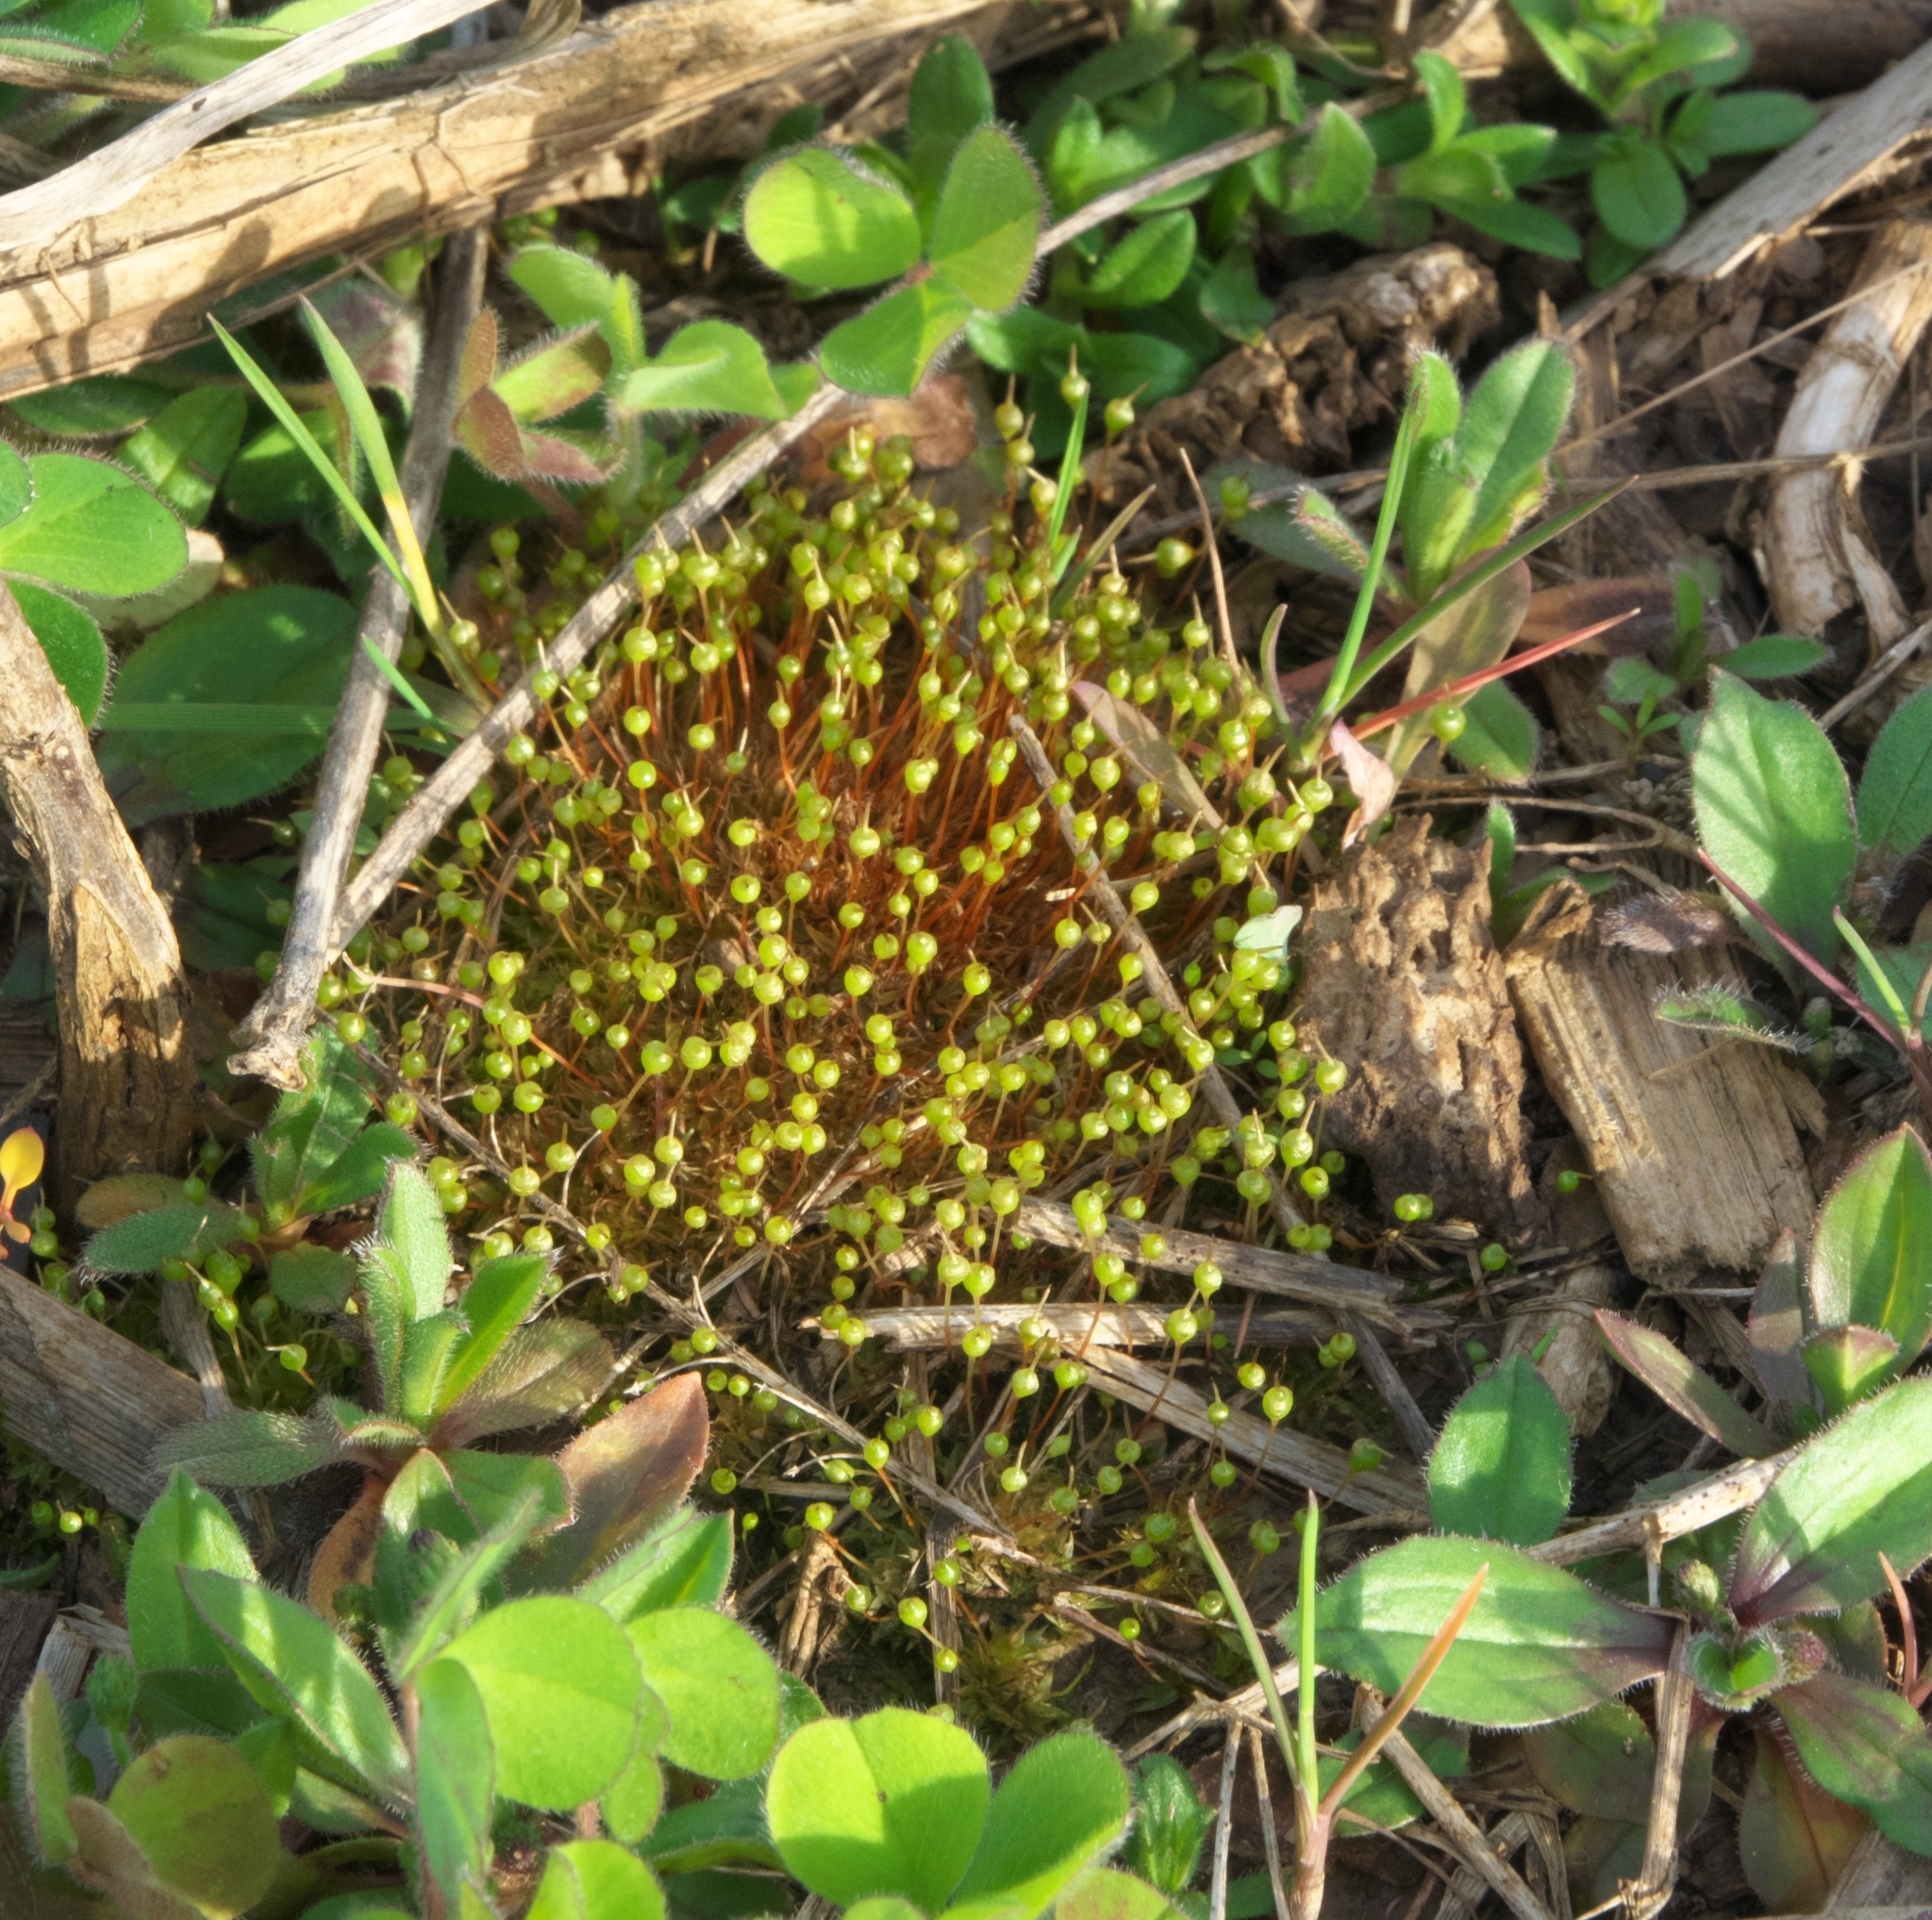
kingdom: Plantae
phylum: Bryophyta
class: Bryopsida
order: Funariales
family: Funariaceae
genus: Physcomitrium
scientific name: Physcomitrium pyriforme
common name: Common bladder-moss
